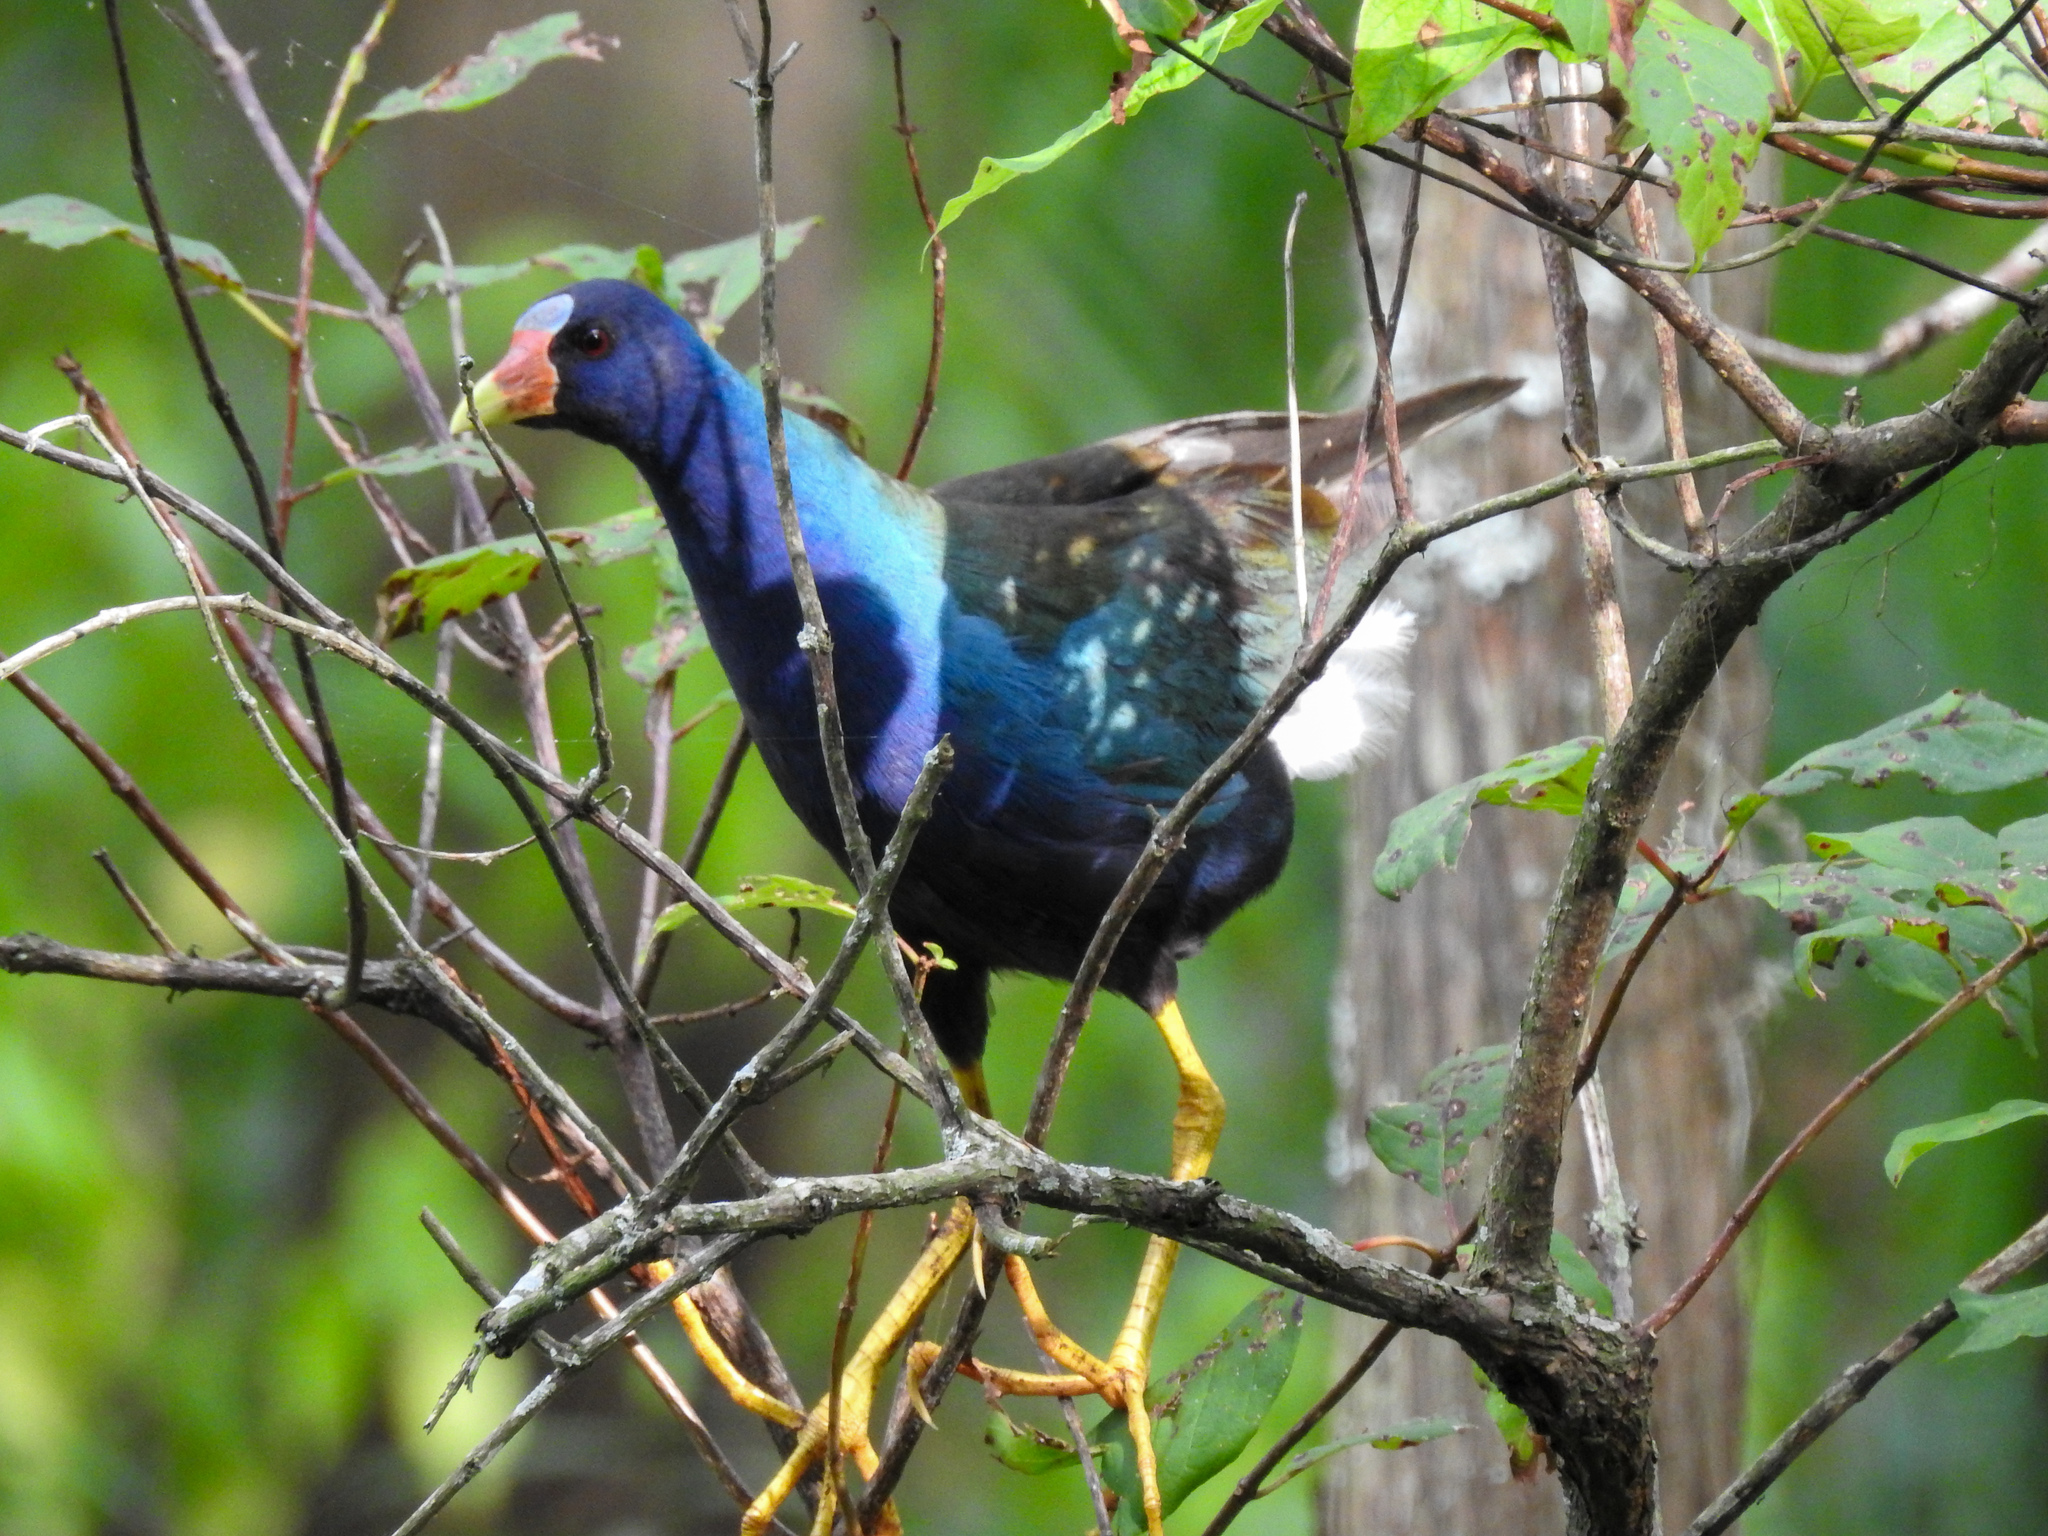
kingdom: Animalia
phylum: Chordata
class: Aves
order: Gruiformes
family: Rallidae
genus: Porphyrio
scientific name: Porphyrio martinica
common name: Purple gallinule
